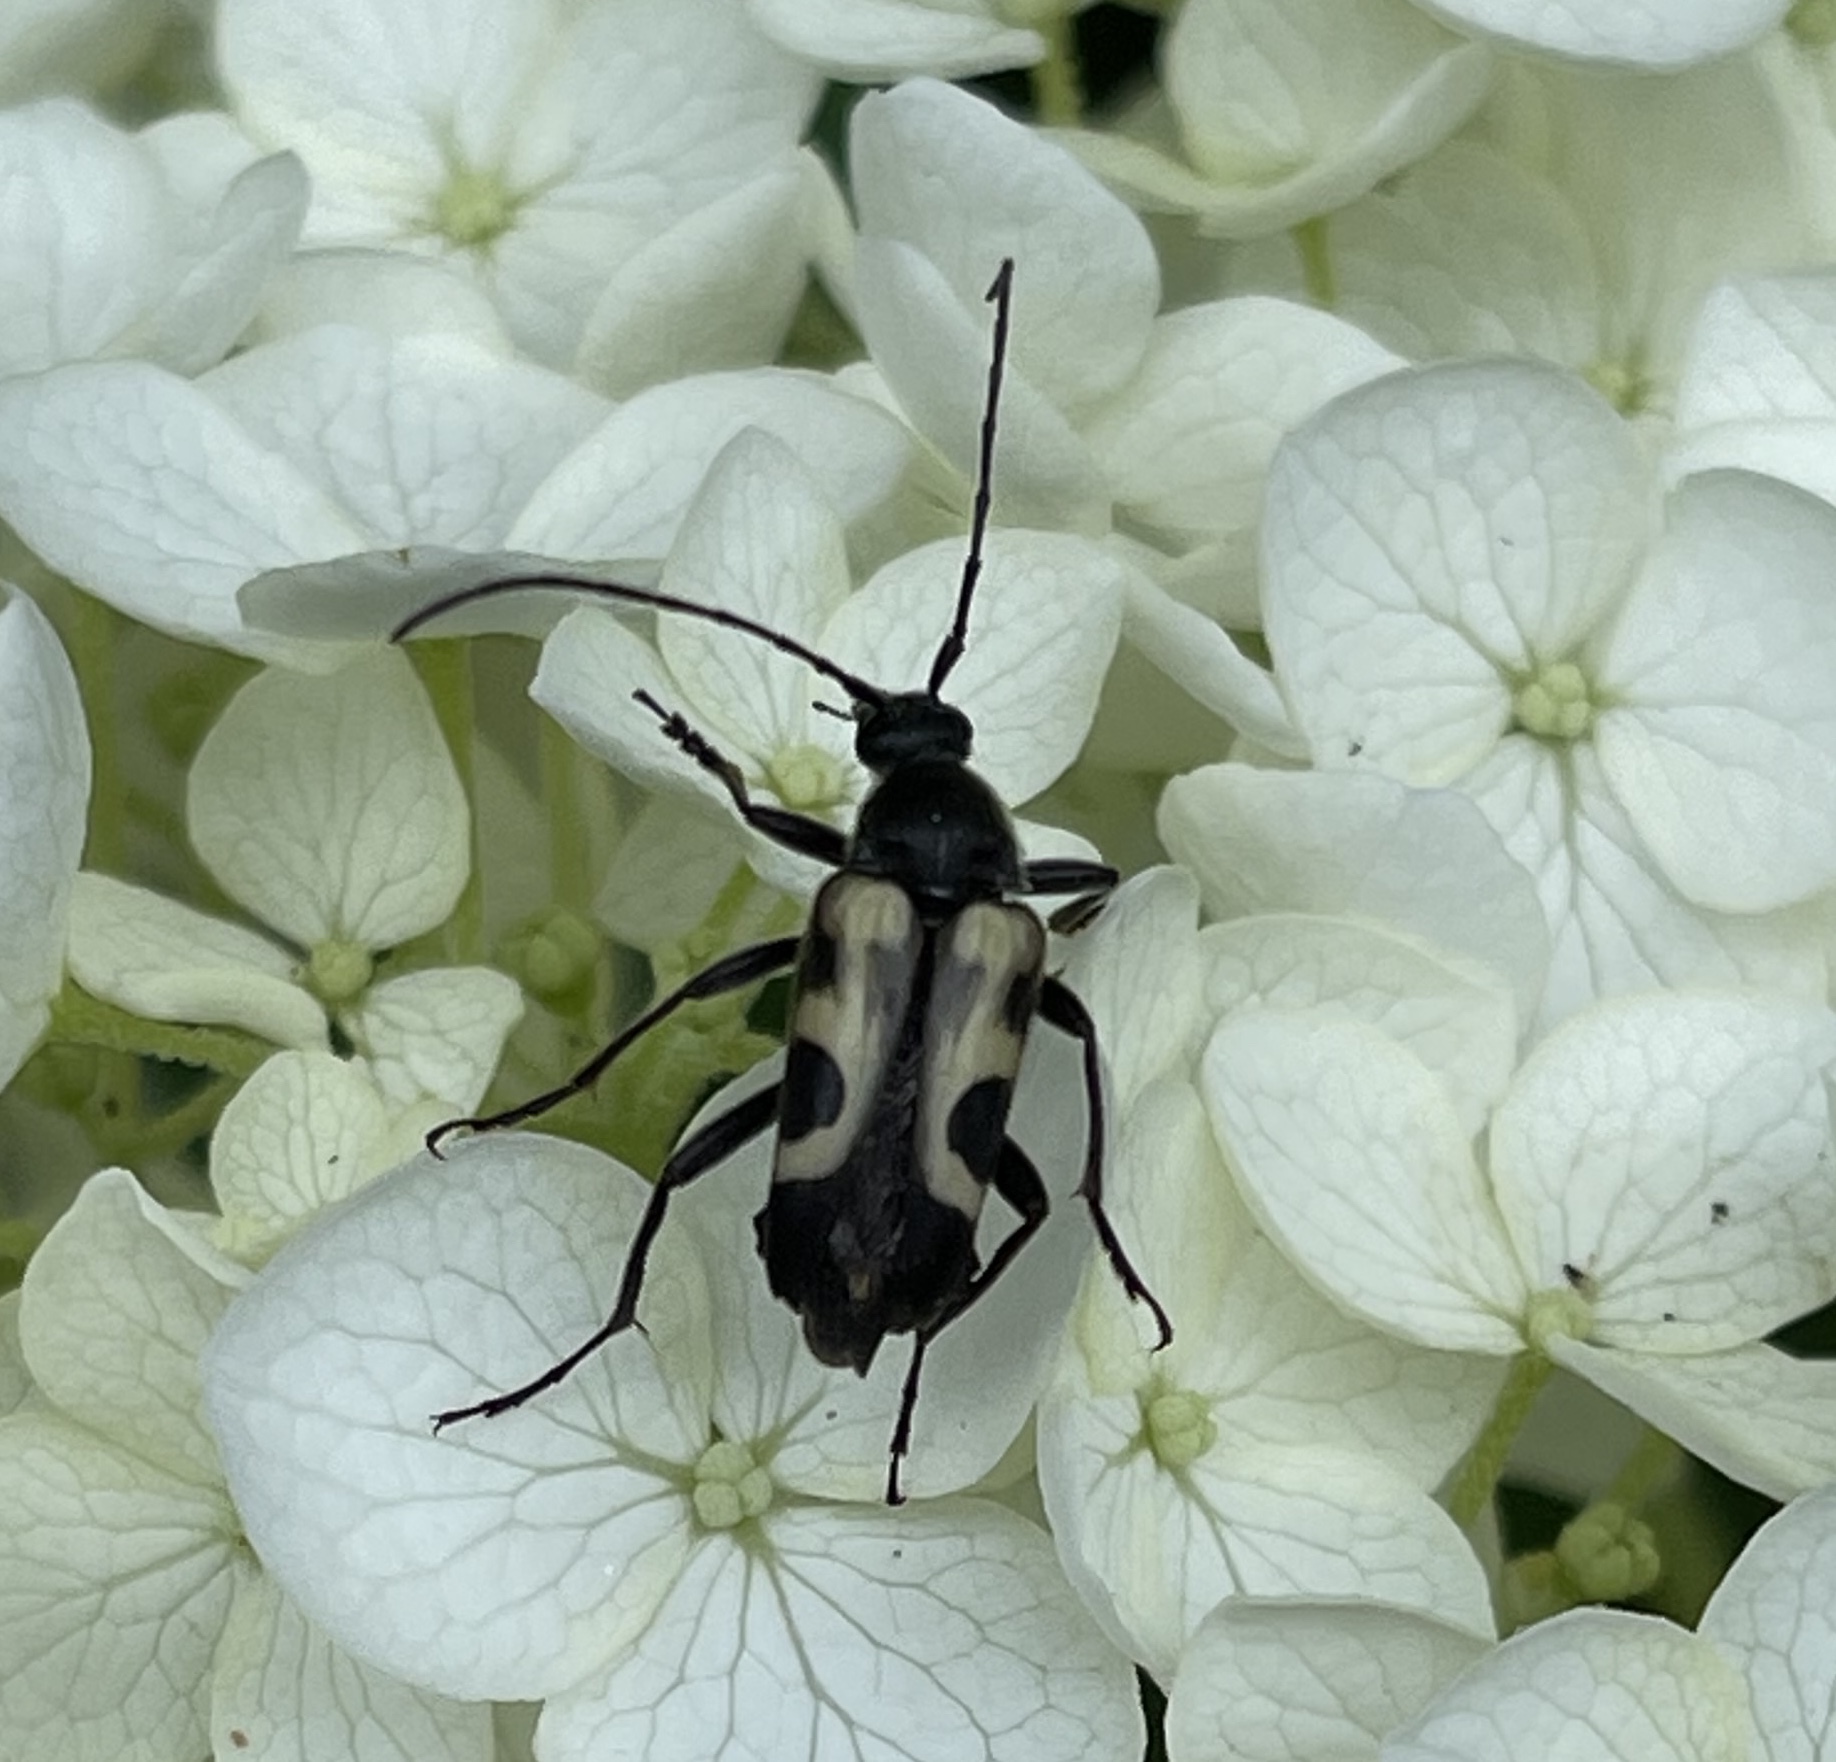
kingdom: Animalia
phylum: Arthropoda
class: Insecta
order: Coleoptera
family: Cerambycidae
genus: Judolia
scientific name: Judolia cordifera
